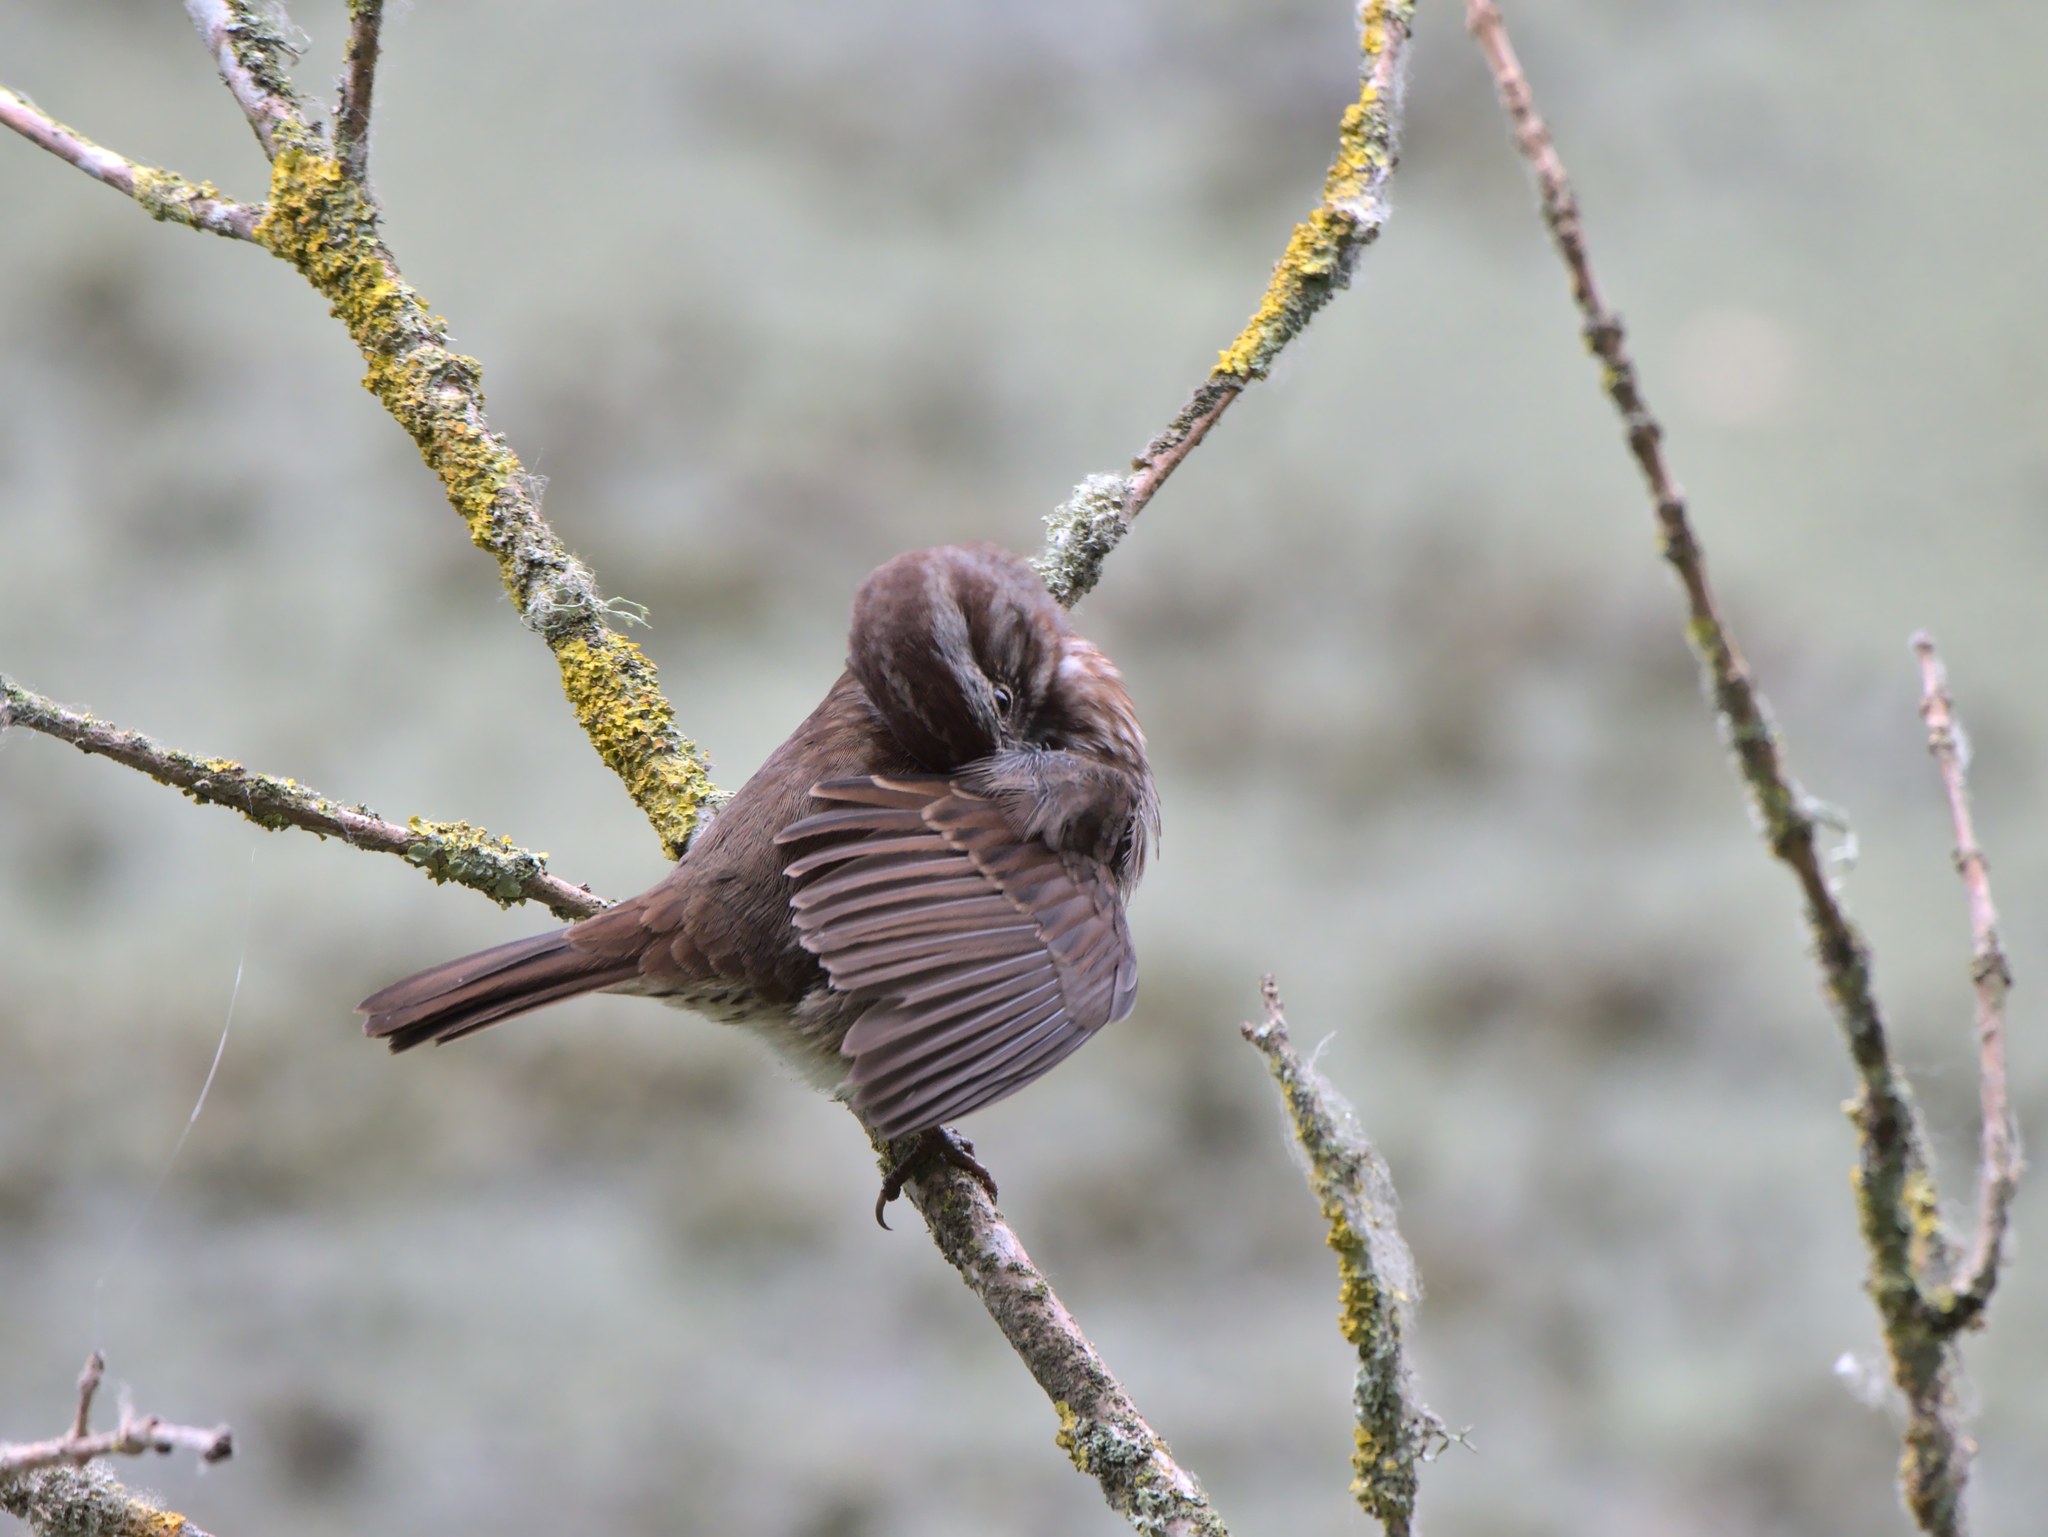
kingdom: Animalia
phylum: Chordata
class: Aves
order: Passeriformes
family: Passerellidae
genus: Melospiza
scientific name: Melospiza melodia
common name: Song sparrow
